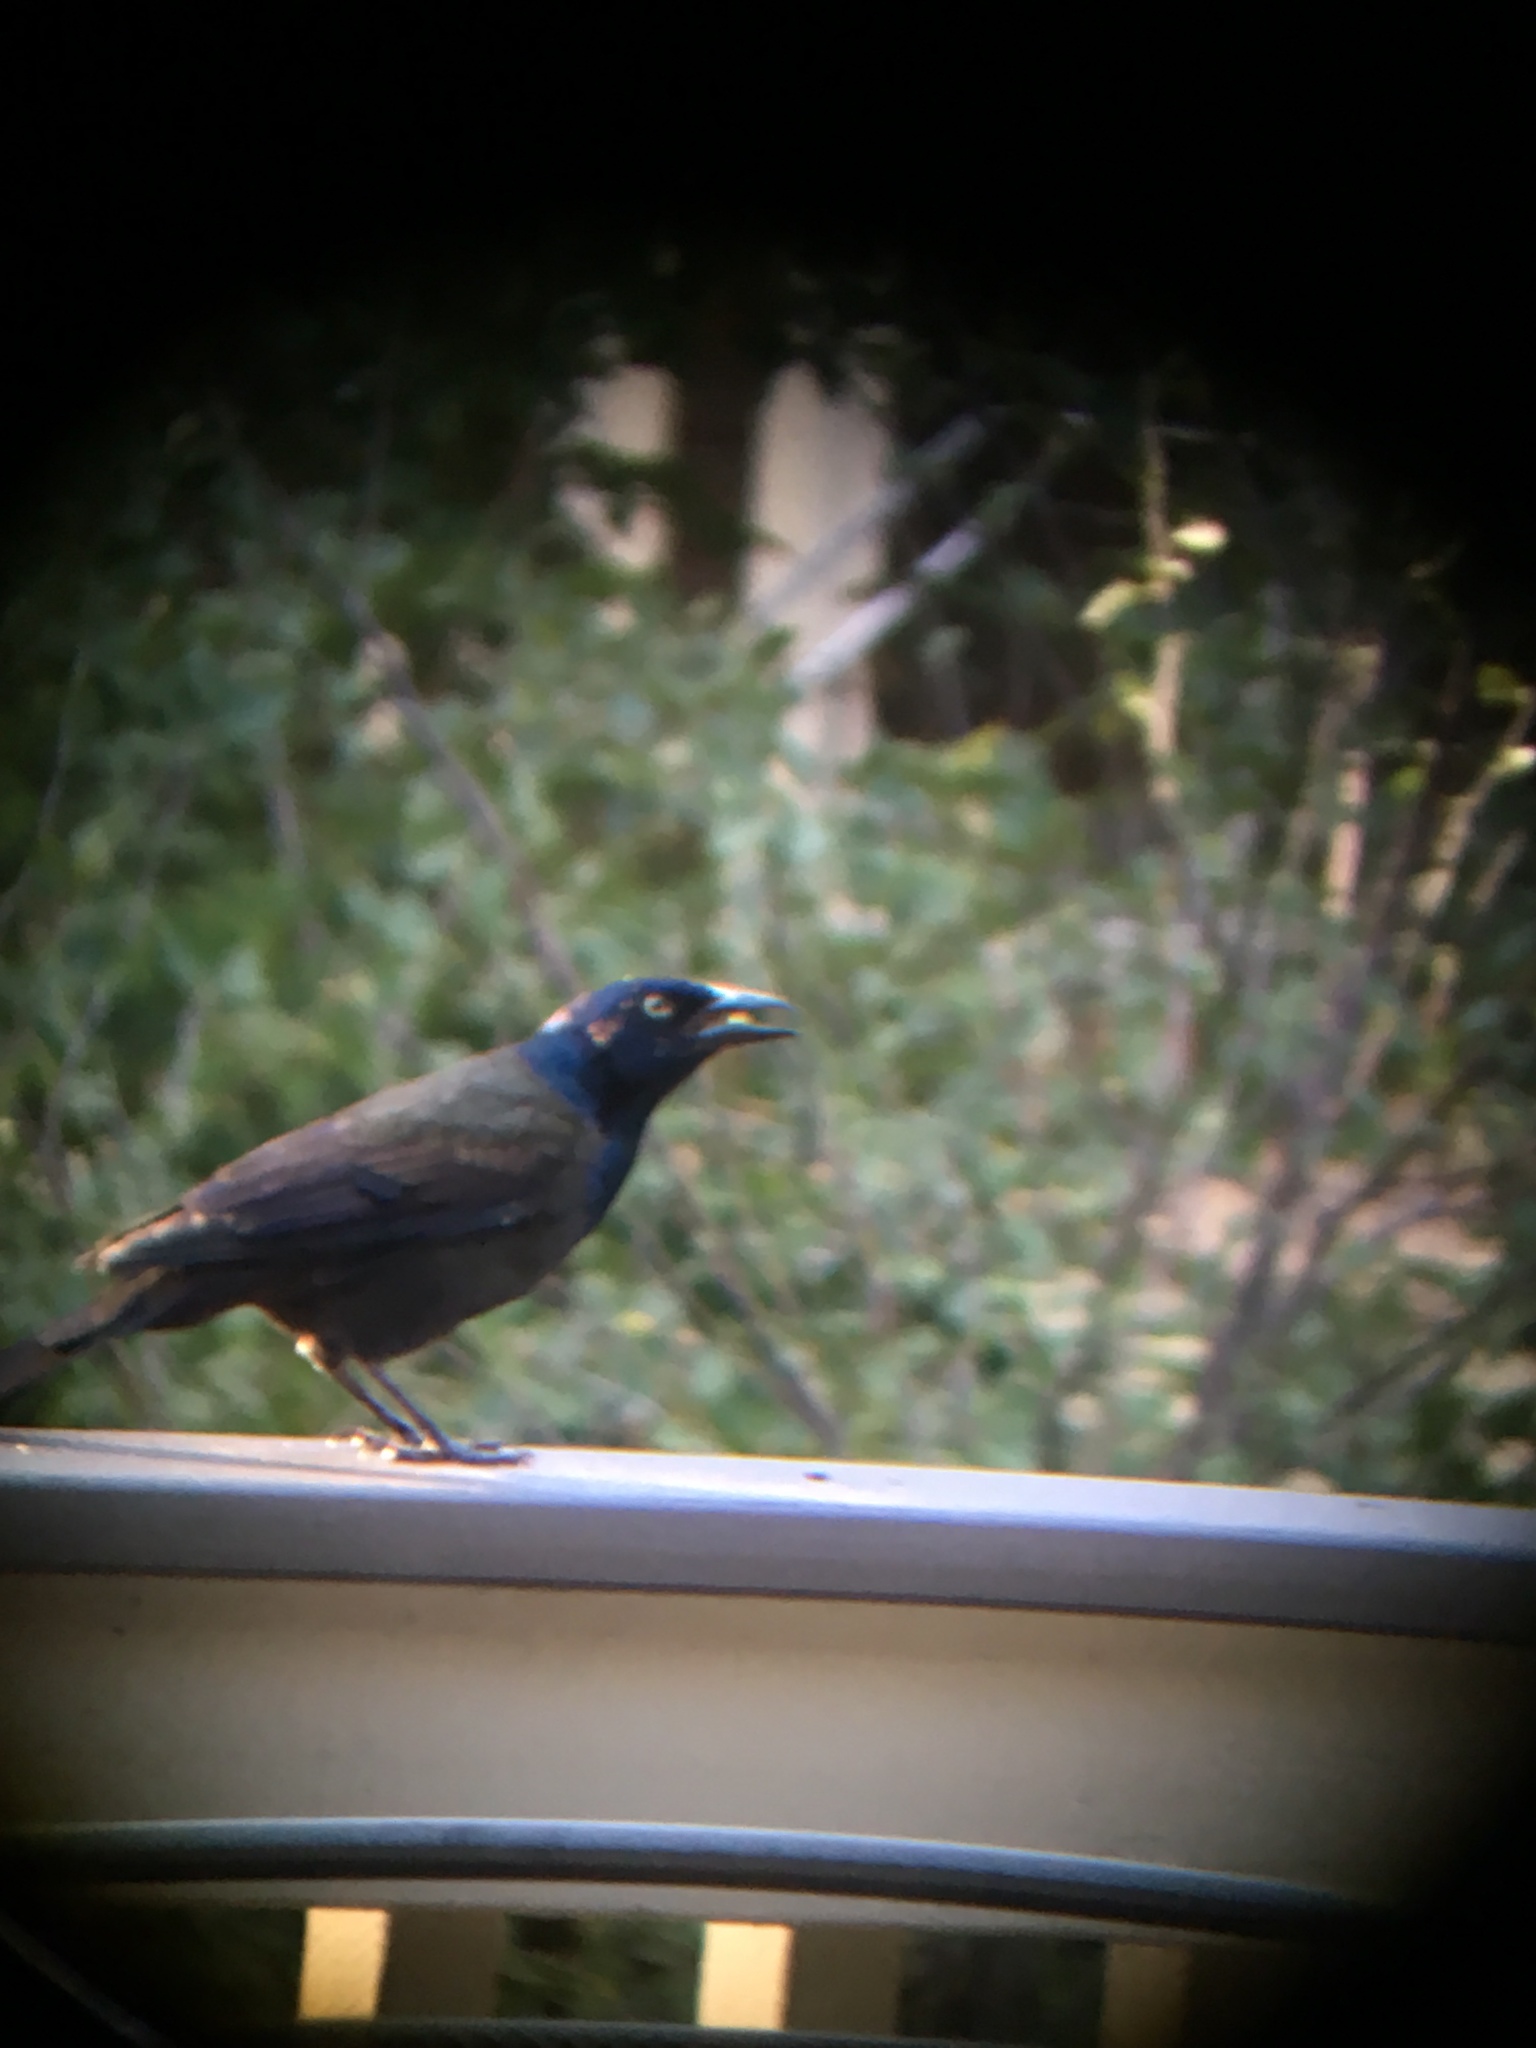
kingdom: Animalia
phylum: Chordata
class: Aves
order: Passeriformes
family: Icteridae
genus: Quiscalus
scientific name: Quiscalus quiscula
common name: Common grackle
